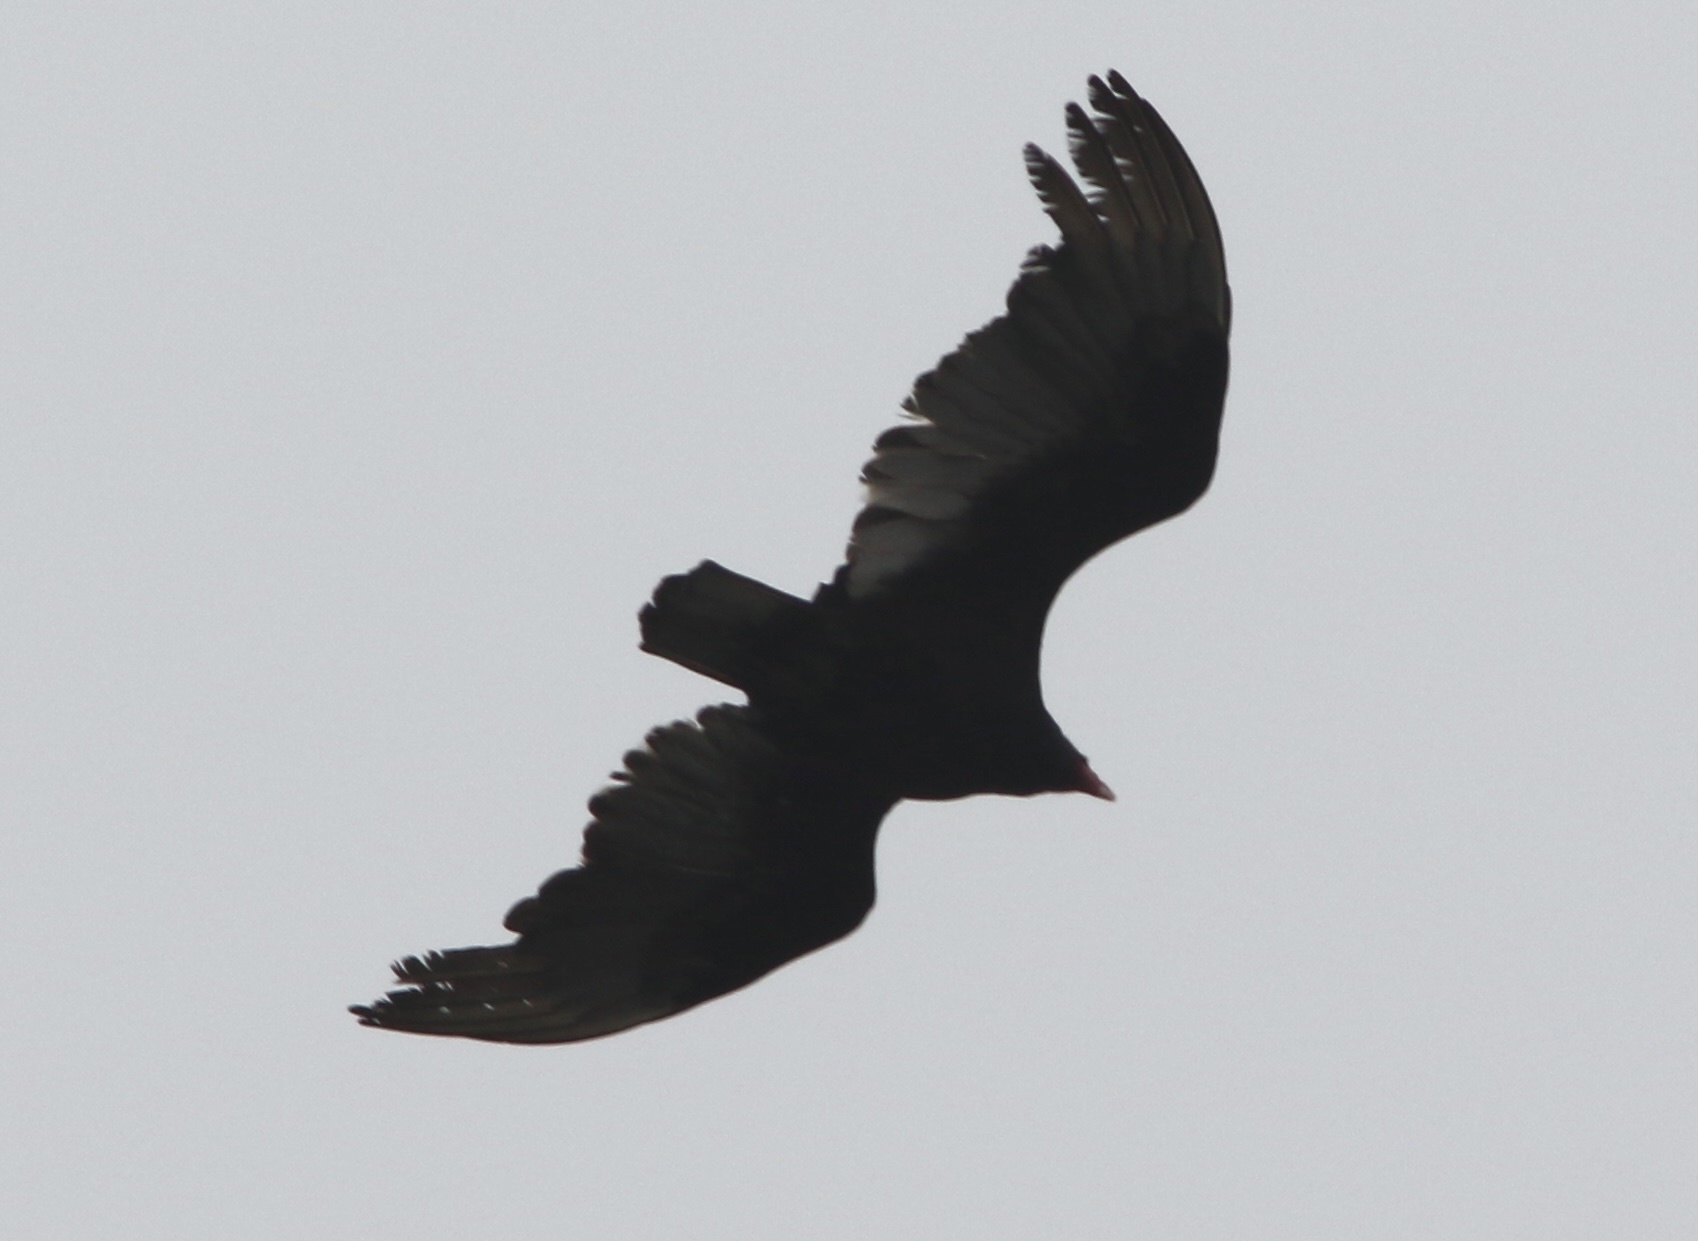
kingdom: Animalia
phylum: Chordata
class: Aves
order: Accipitriformes
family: Cathartidae
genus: Cathartes
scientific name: Cathartes aura
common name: Turkey vulture
